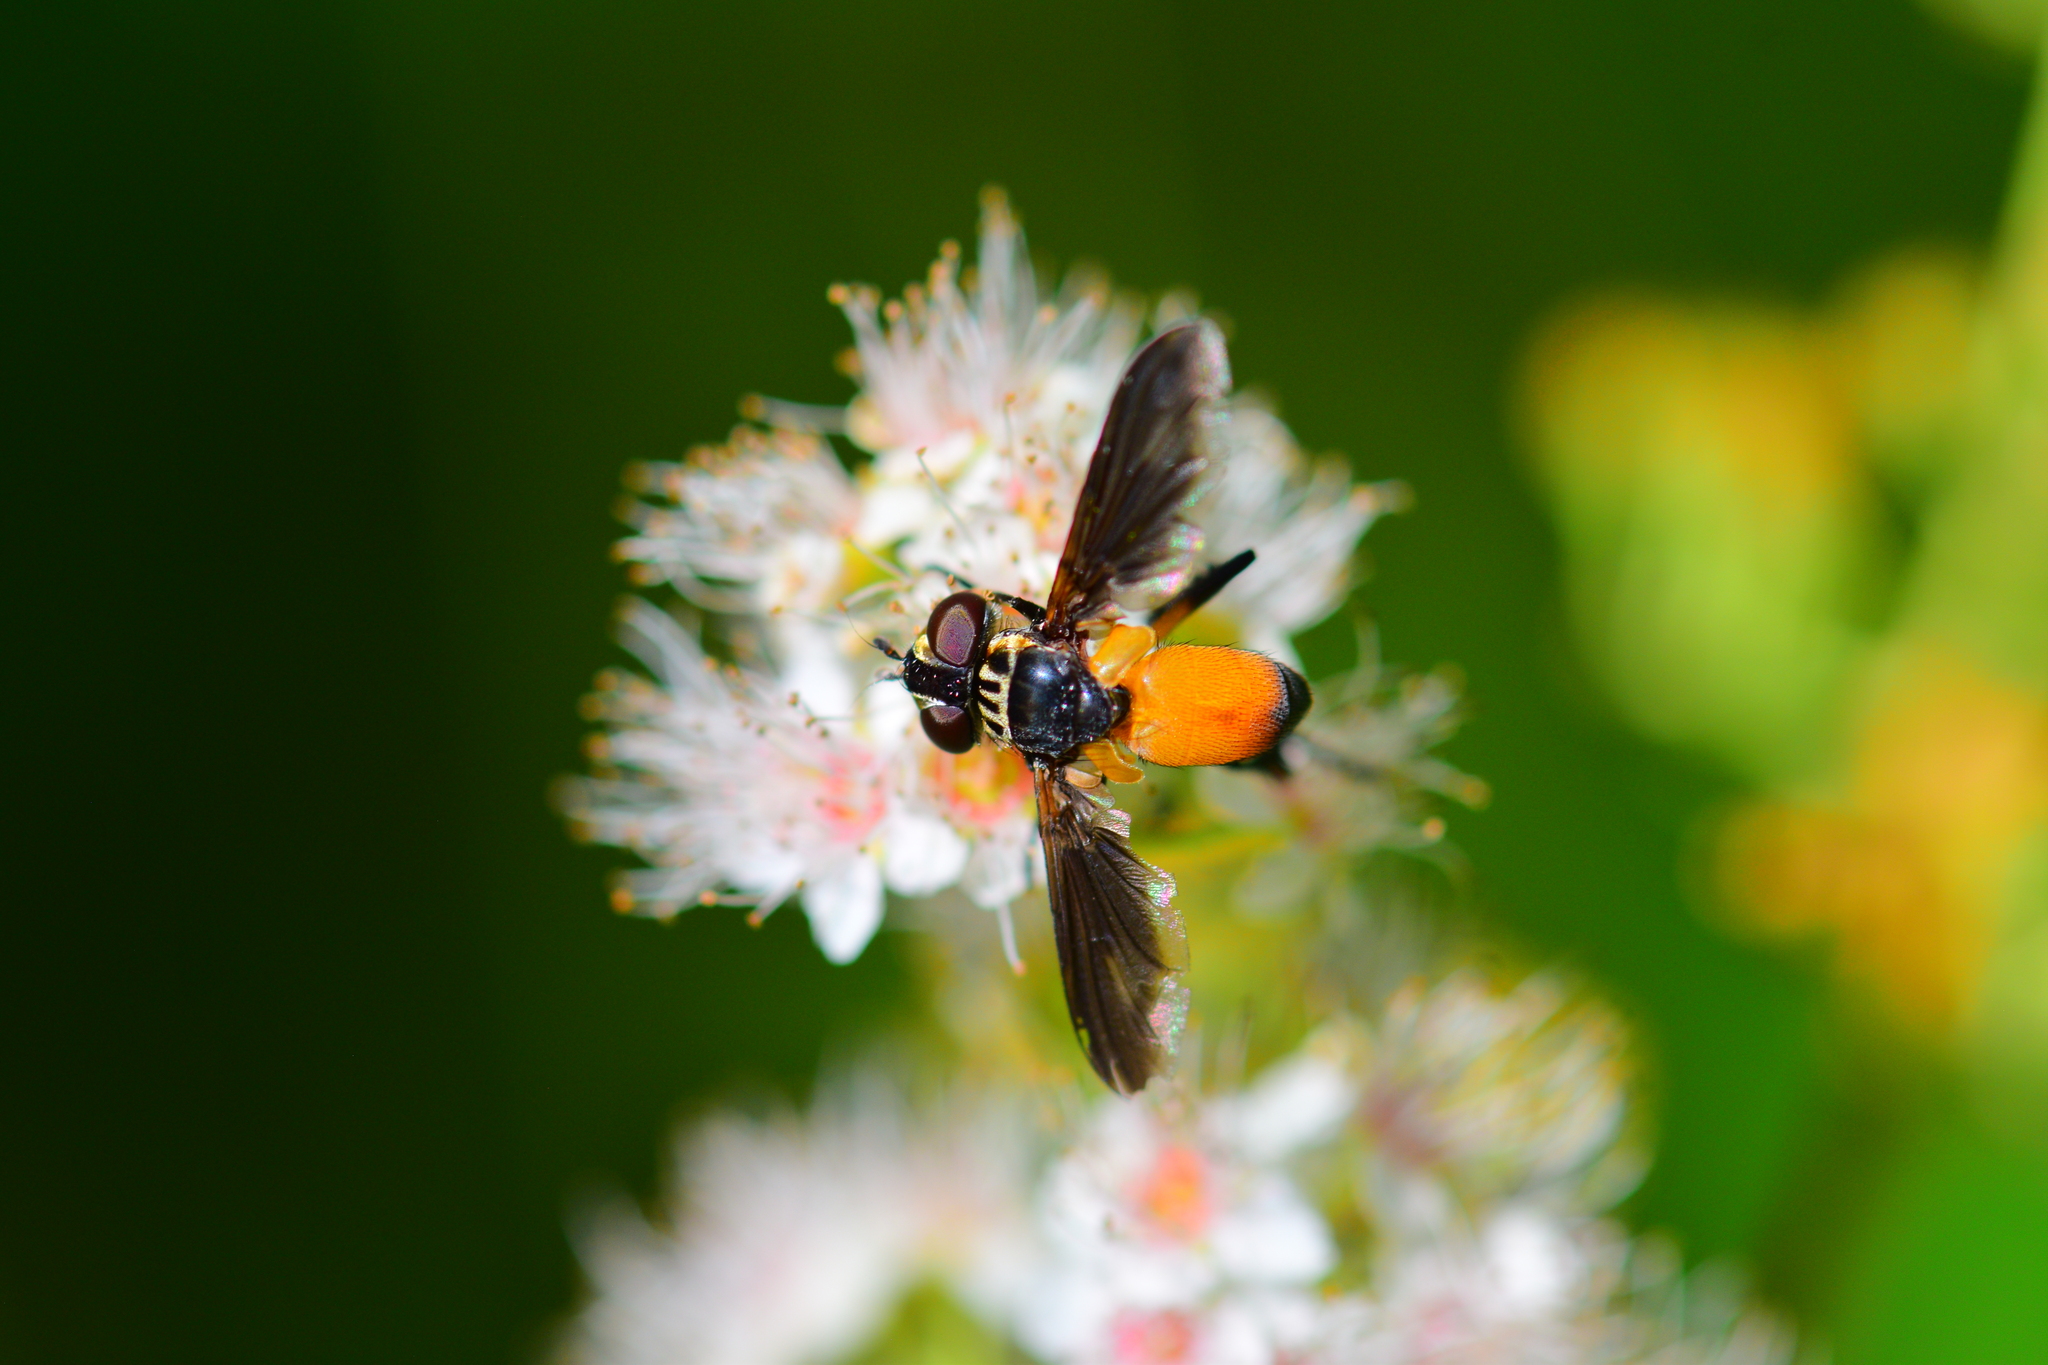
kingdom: Animalia
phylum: Arthropoda
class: Insecta
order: Diptera
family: Tachinidae
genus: Trichopoda
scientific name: Trichopoda pennipes
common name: Tachinid fly
